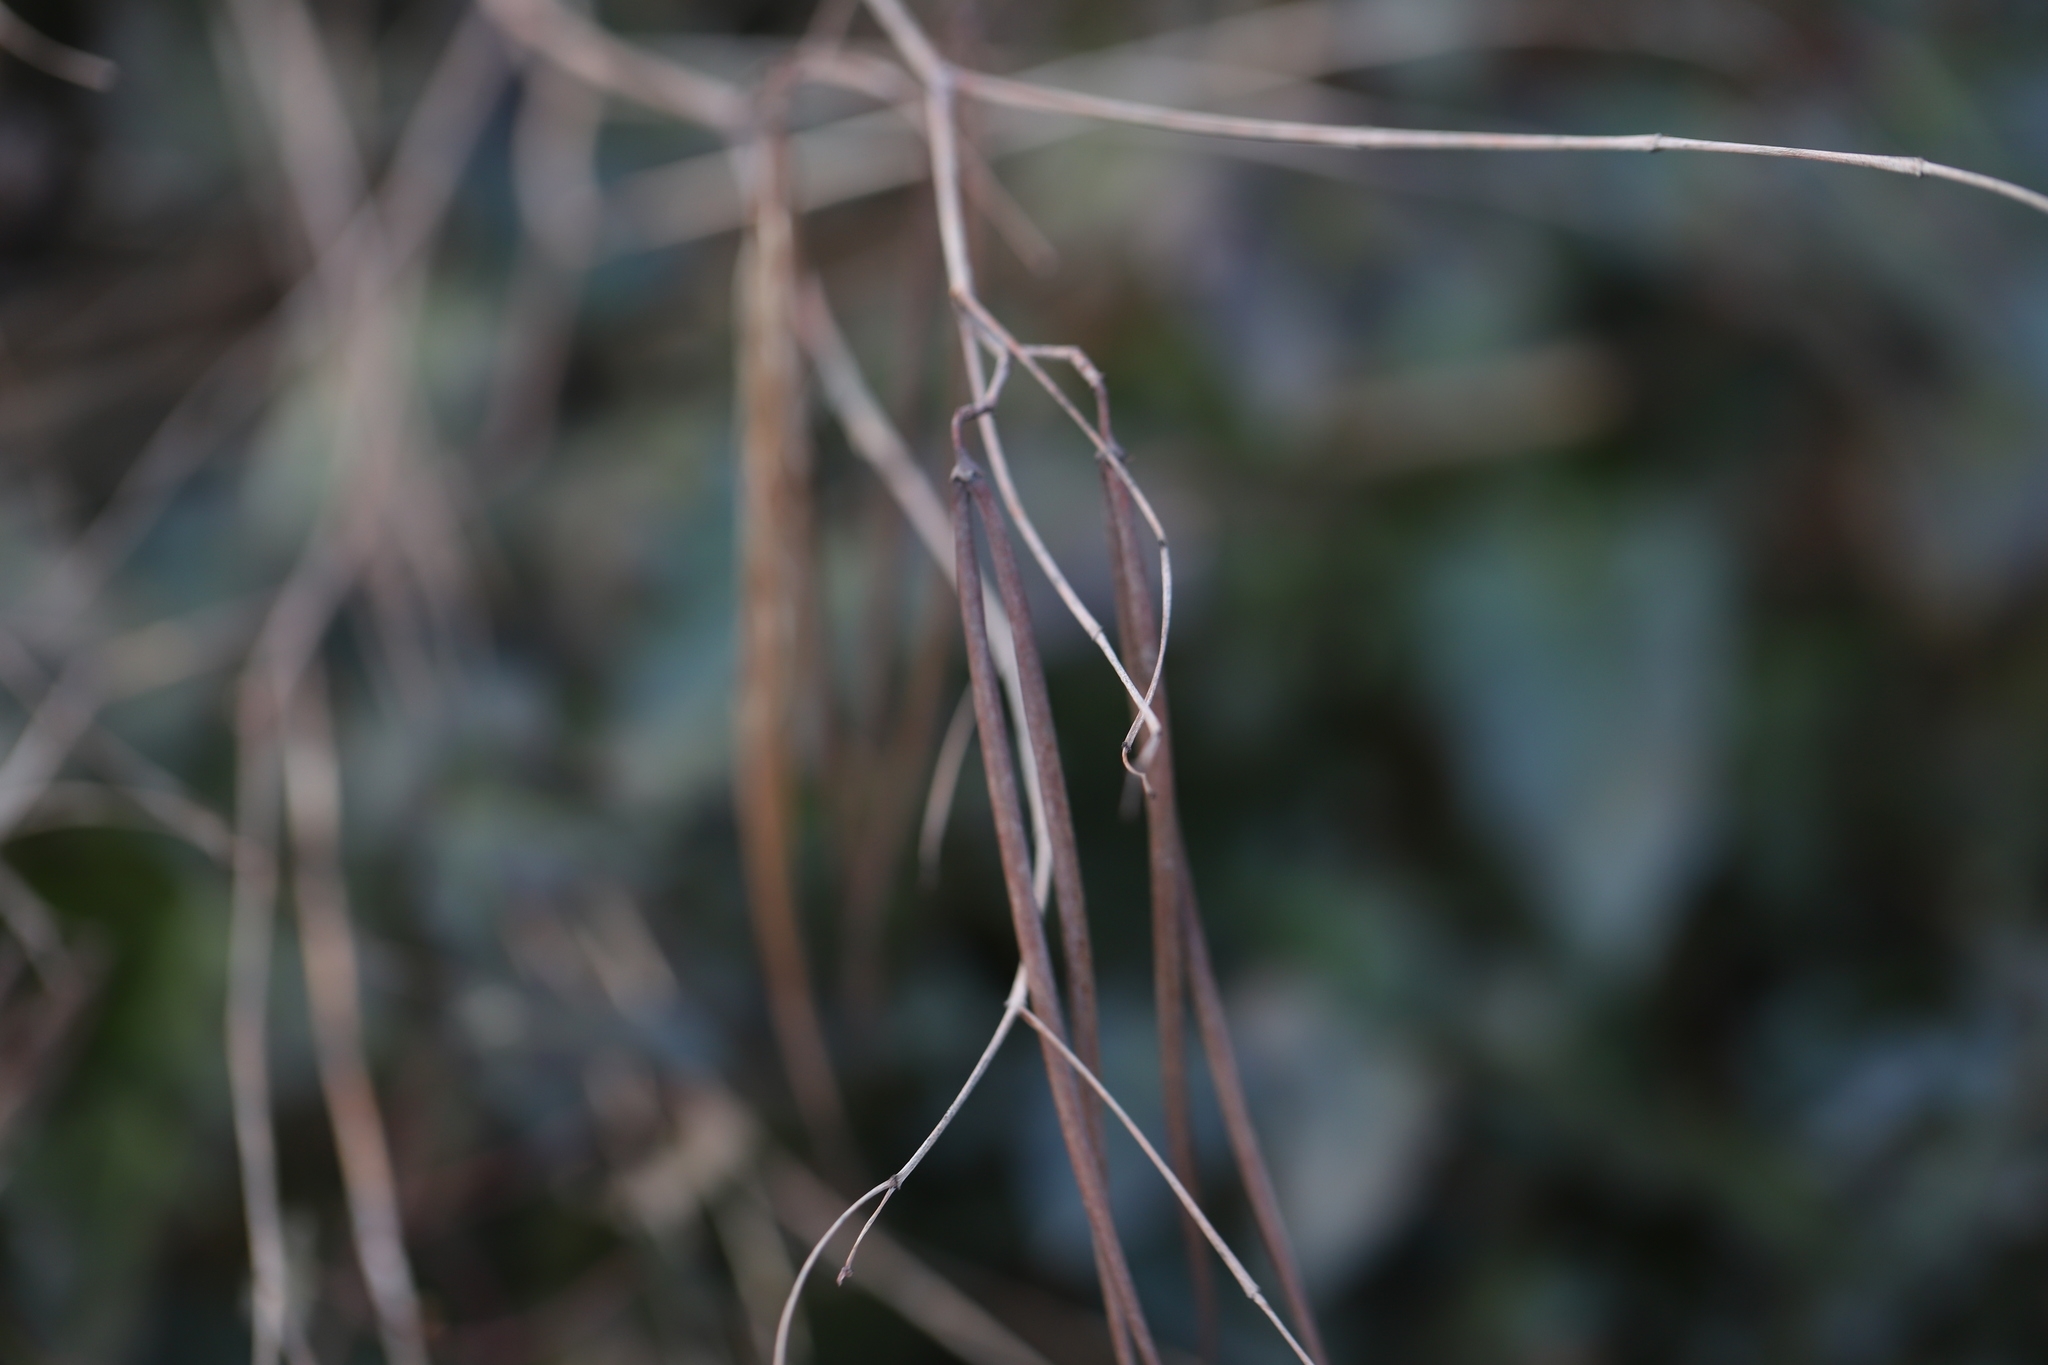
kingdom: Plantae
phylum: Tracheophyta
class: Magnoliopsida
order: Gentianales
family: Apocynaceae
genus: Apocynum
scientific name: Apocynum cannabinum
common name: Hemp dogbane
